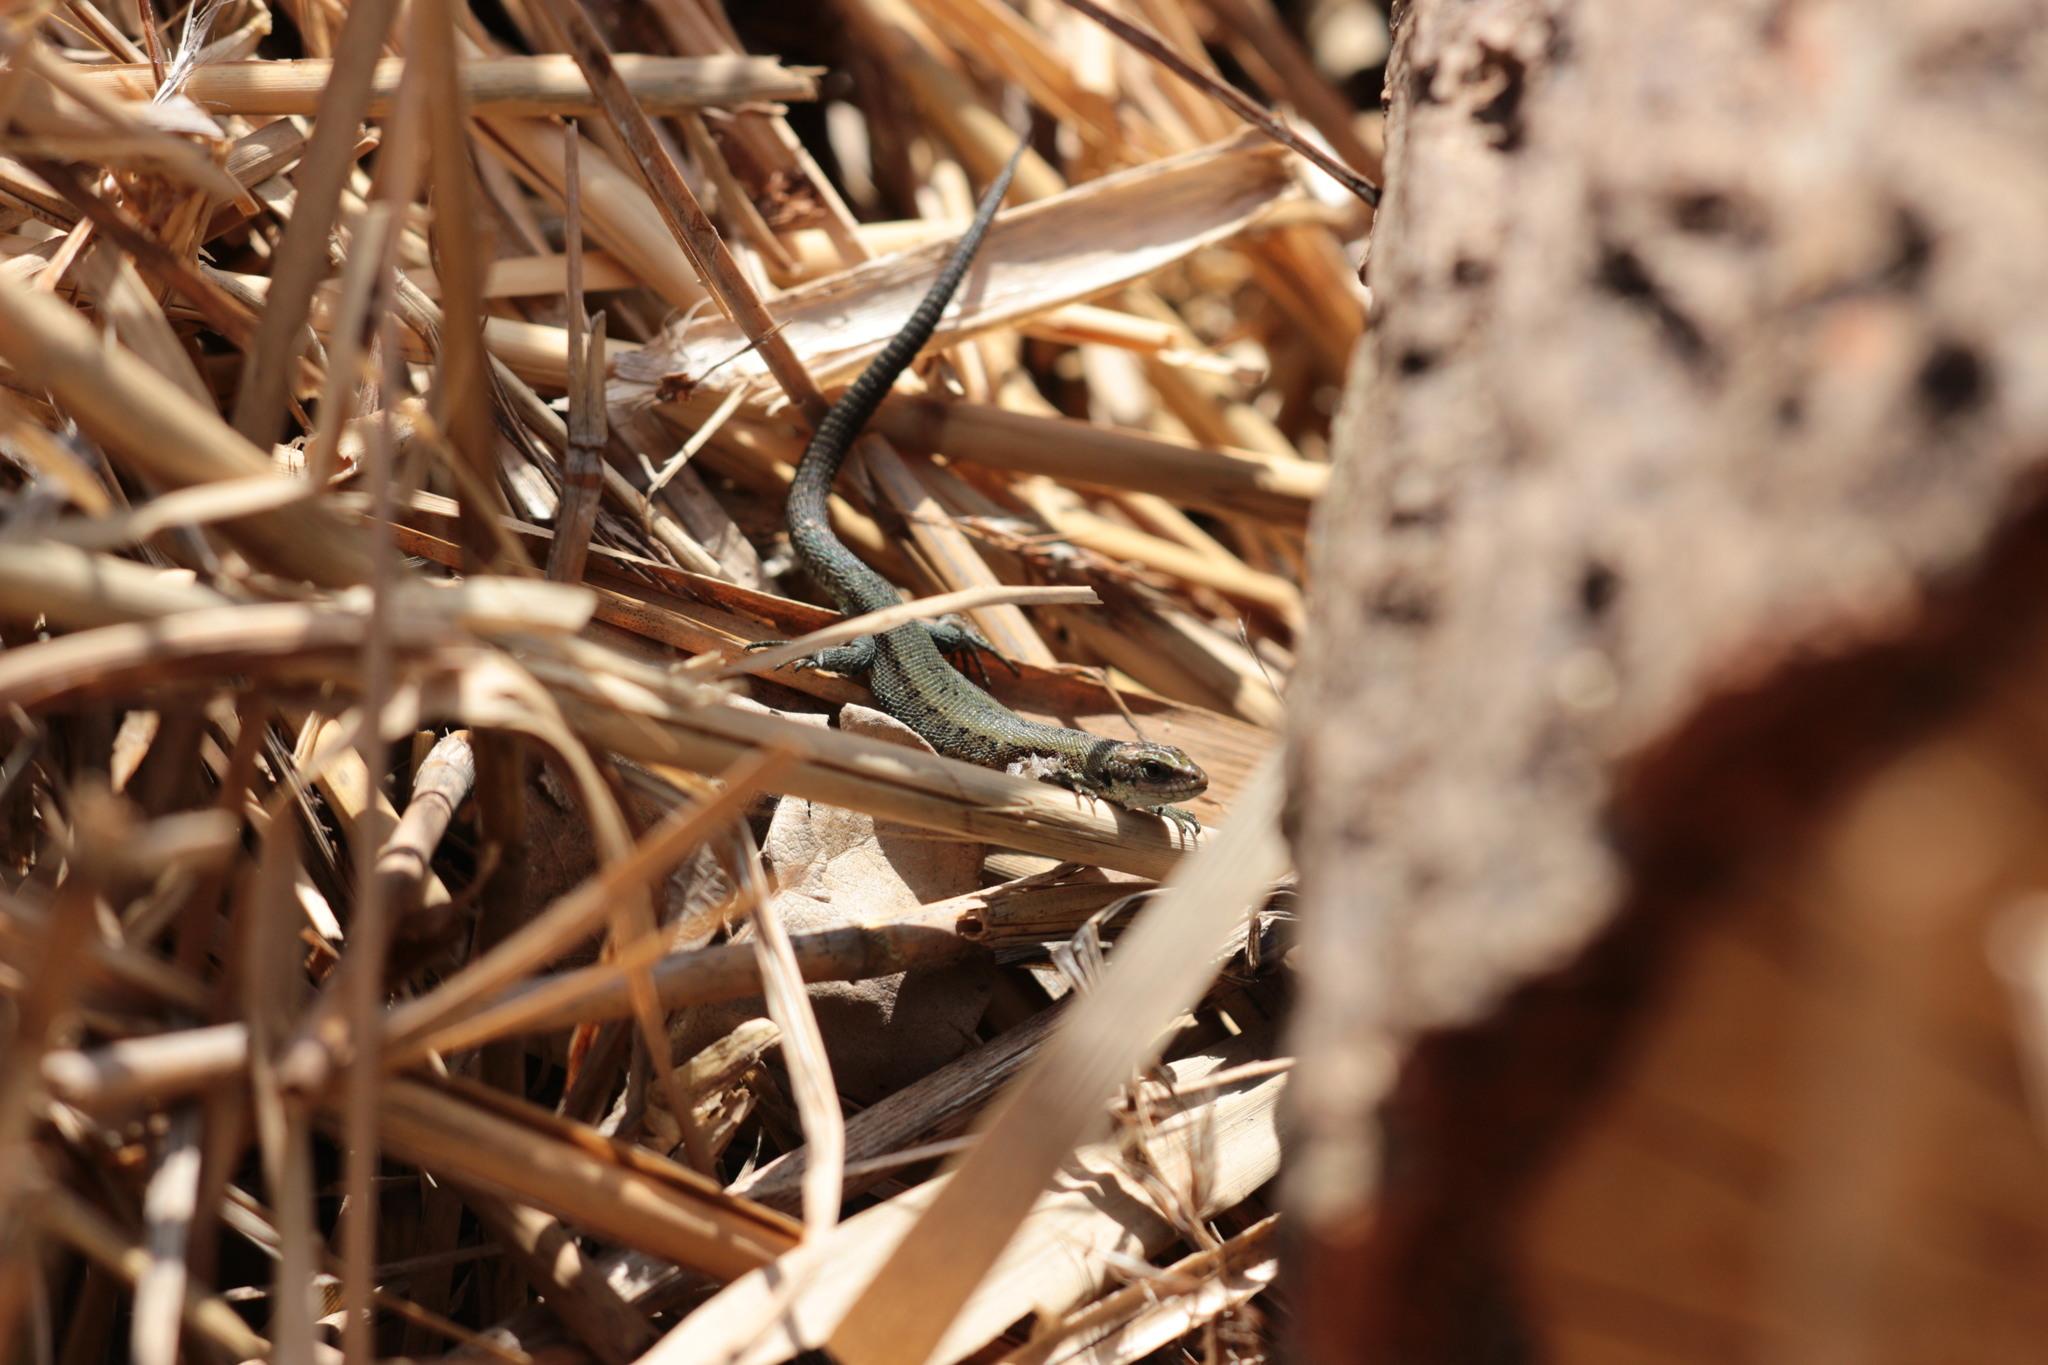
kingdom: Animalia
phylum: Chordata
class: Squamata
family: Lacertidae
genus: Zootoca
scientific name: Zootoca vivipara
